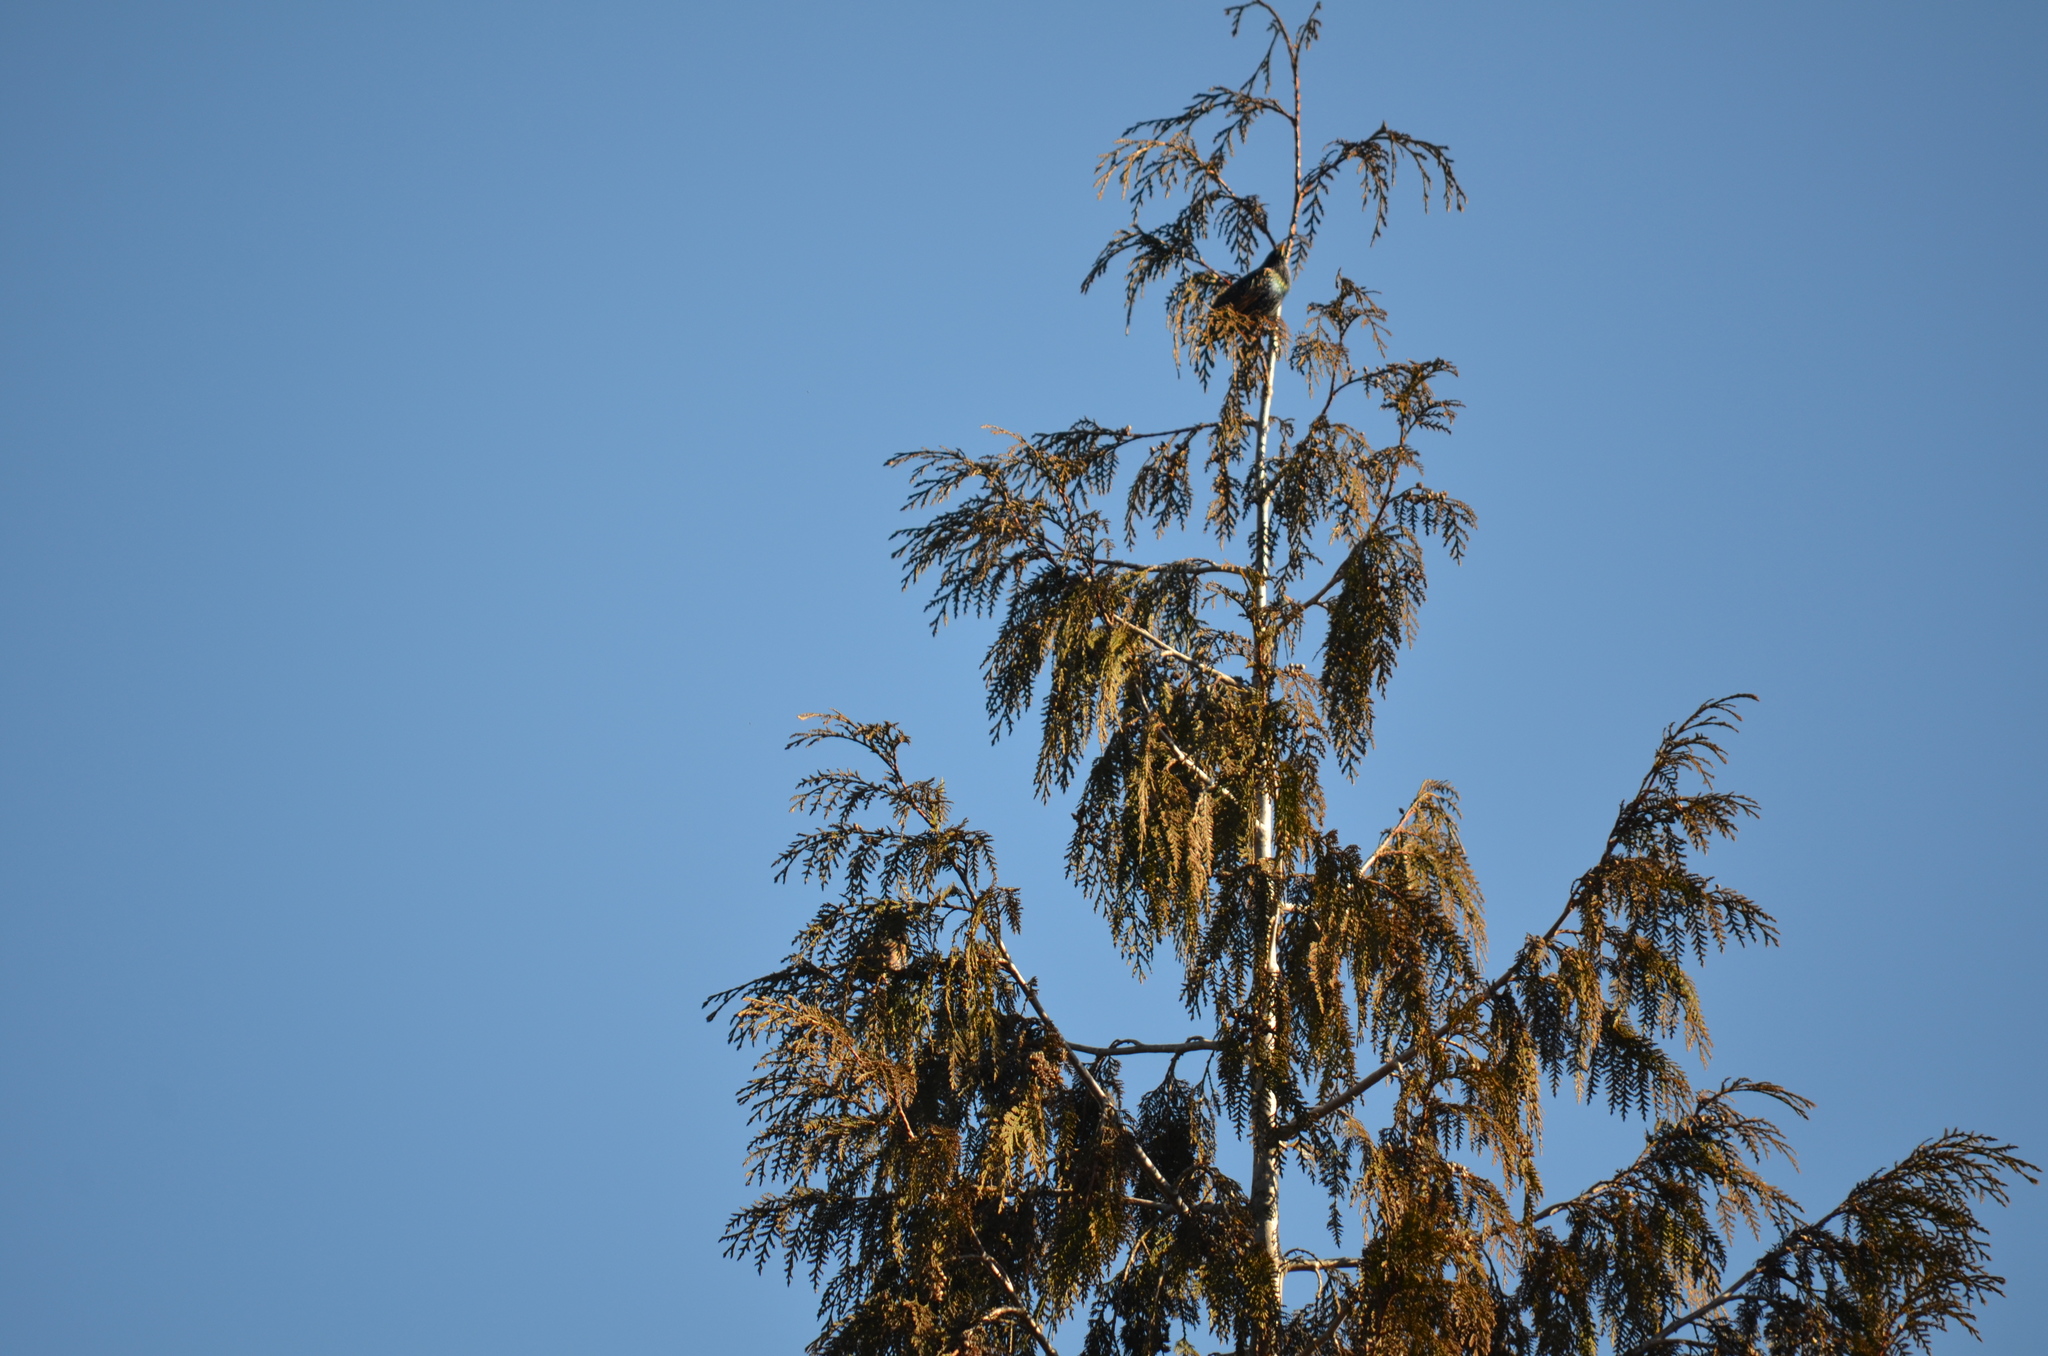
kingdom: Animalia
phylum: Chordata
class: Aves
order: Passeriformes
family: Sturnidae
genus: Sturnus
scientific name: Sturnus vulgaris
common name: Common starling
